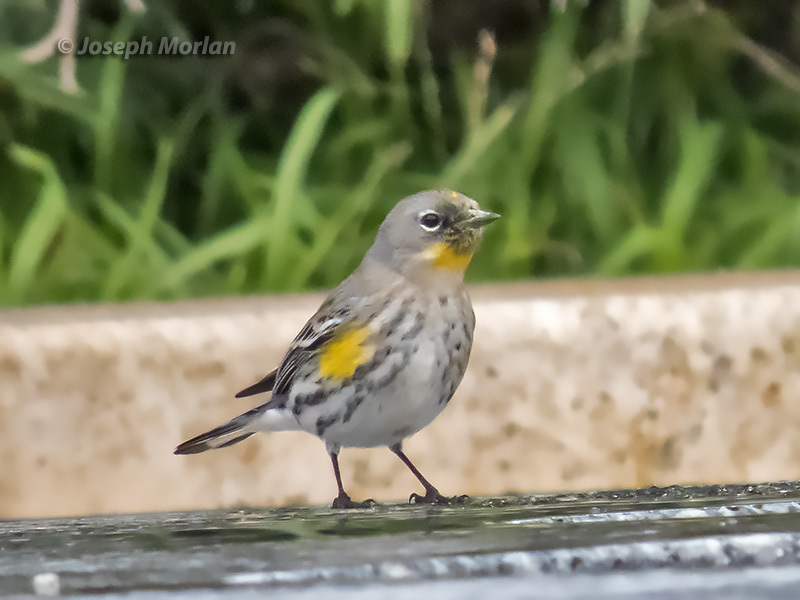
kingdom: Animalia
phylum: Chordata
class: Aves
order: Passeriformes
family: Parulidae
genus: Setophaga
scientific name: Setophaga coronata
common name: Myrtle warbler
